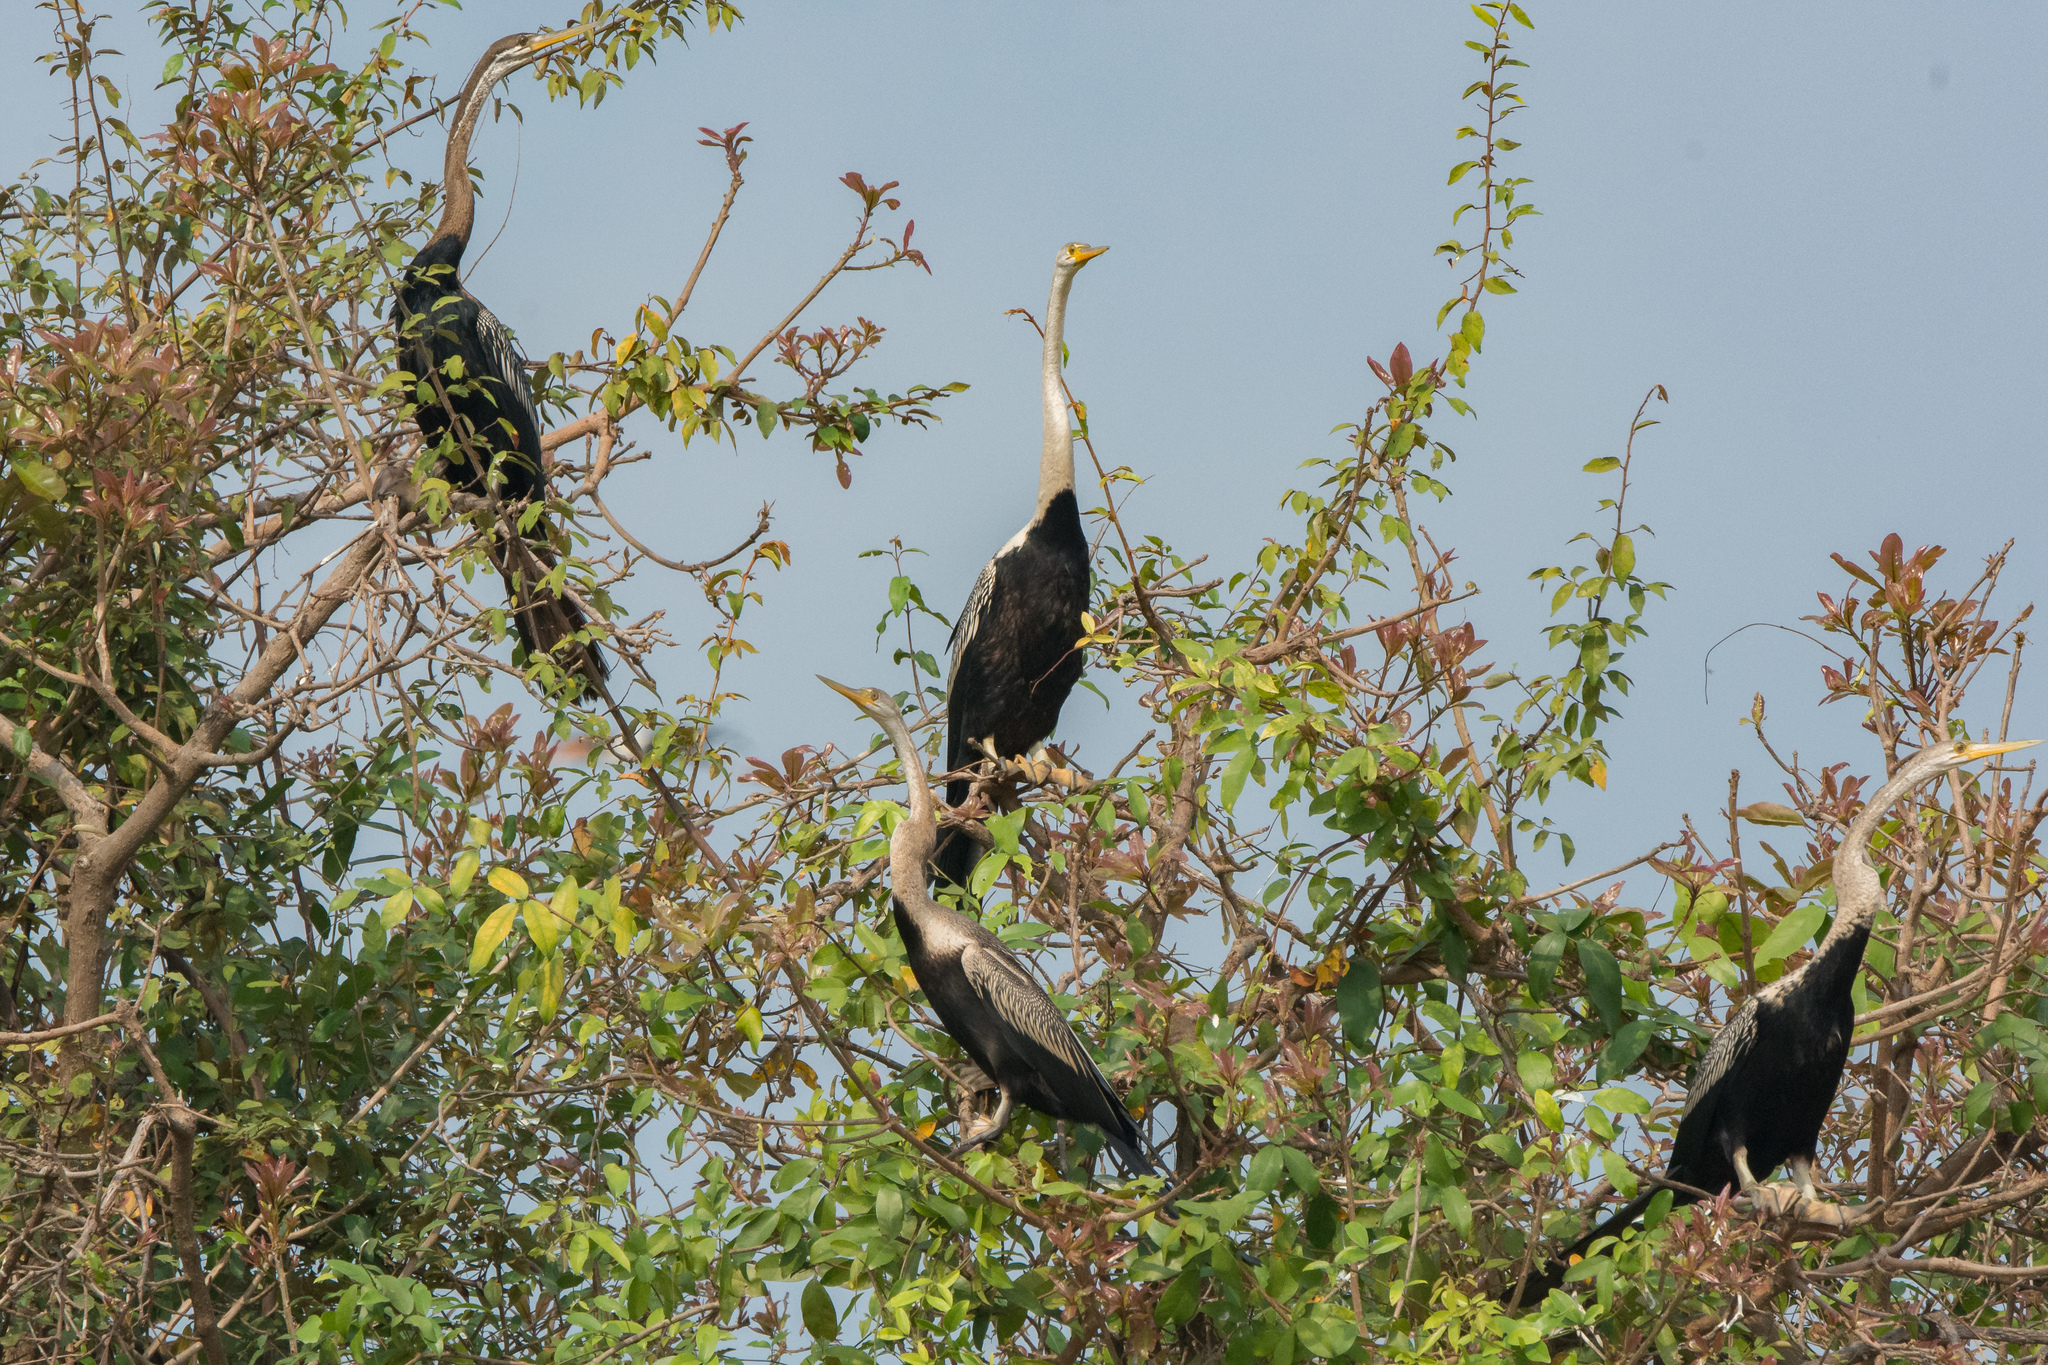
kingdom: Animalia
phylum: Chordata
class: Aves
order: Suliformes
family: Anhingidae
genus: Anhinga
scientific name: Anhinga melanogaster
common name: Oriental darter
